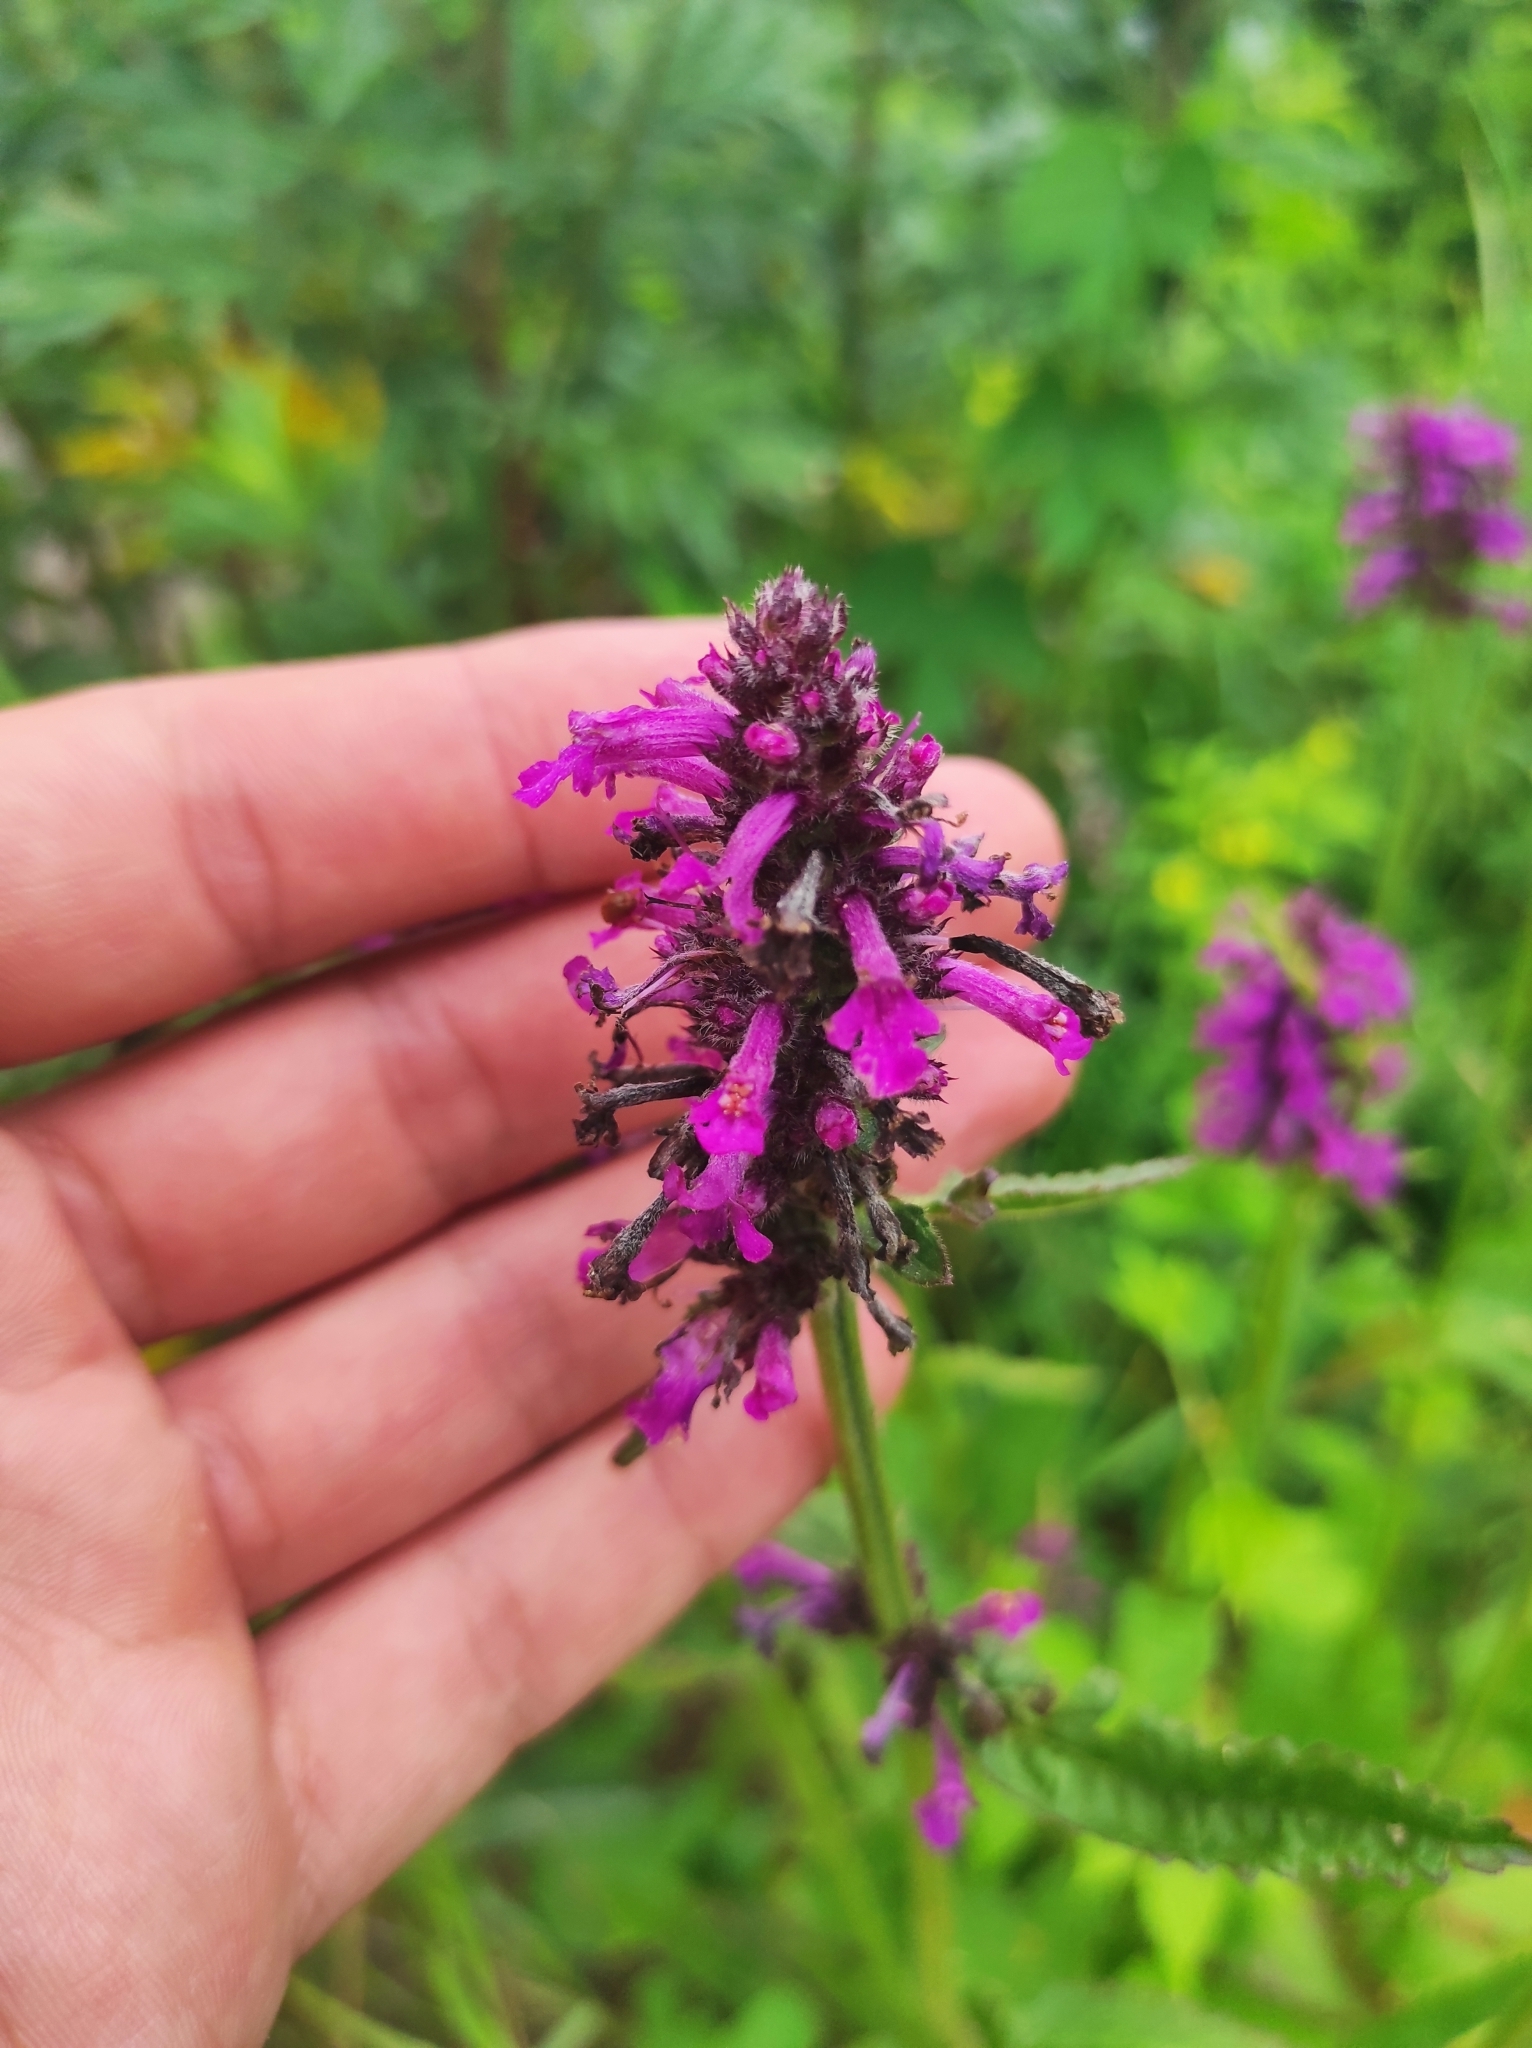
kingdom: Plantae
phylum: Tracheophyta
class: Magnoliopsida
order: Lamiales
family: Lamiaceae
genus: Betonica
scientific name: Betonica officinalis
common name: Bishop's-wort
